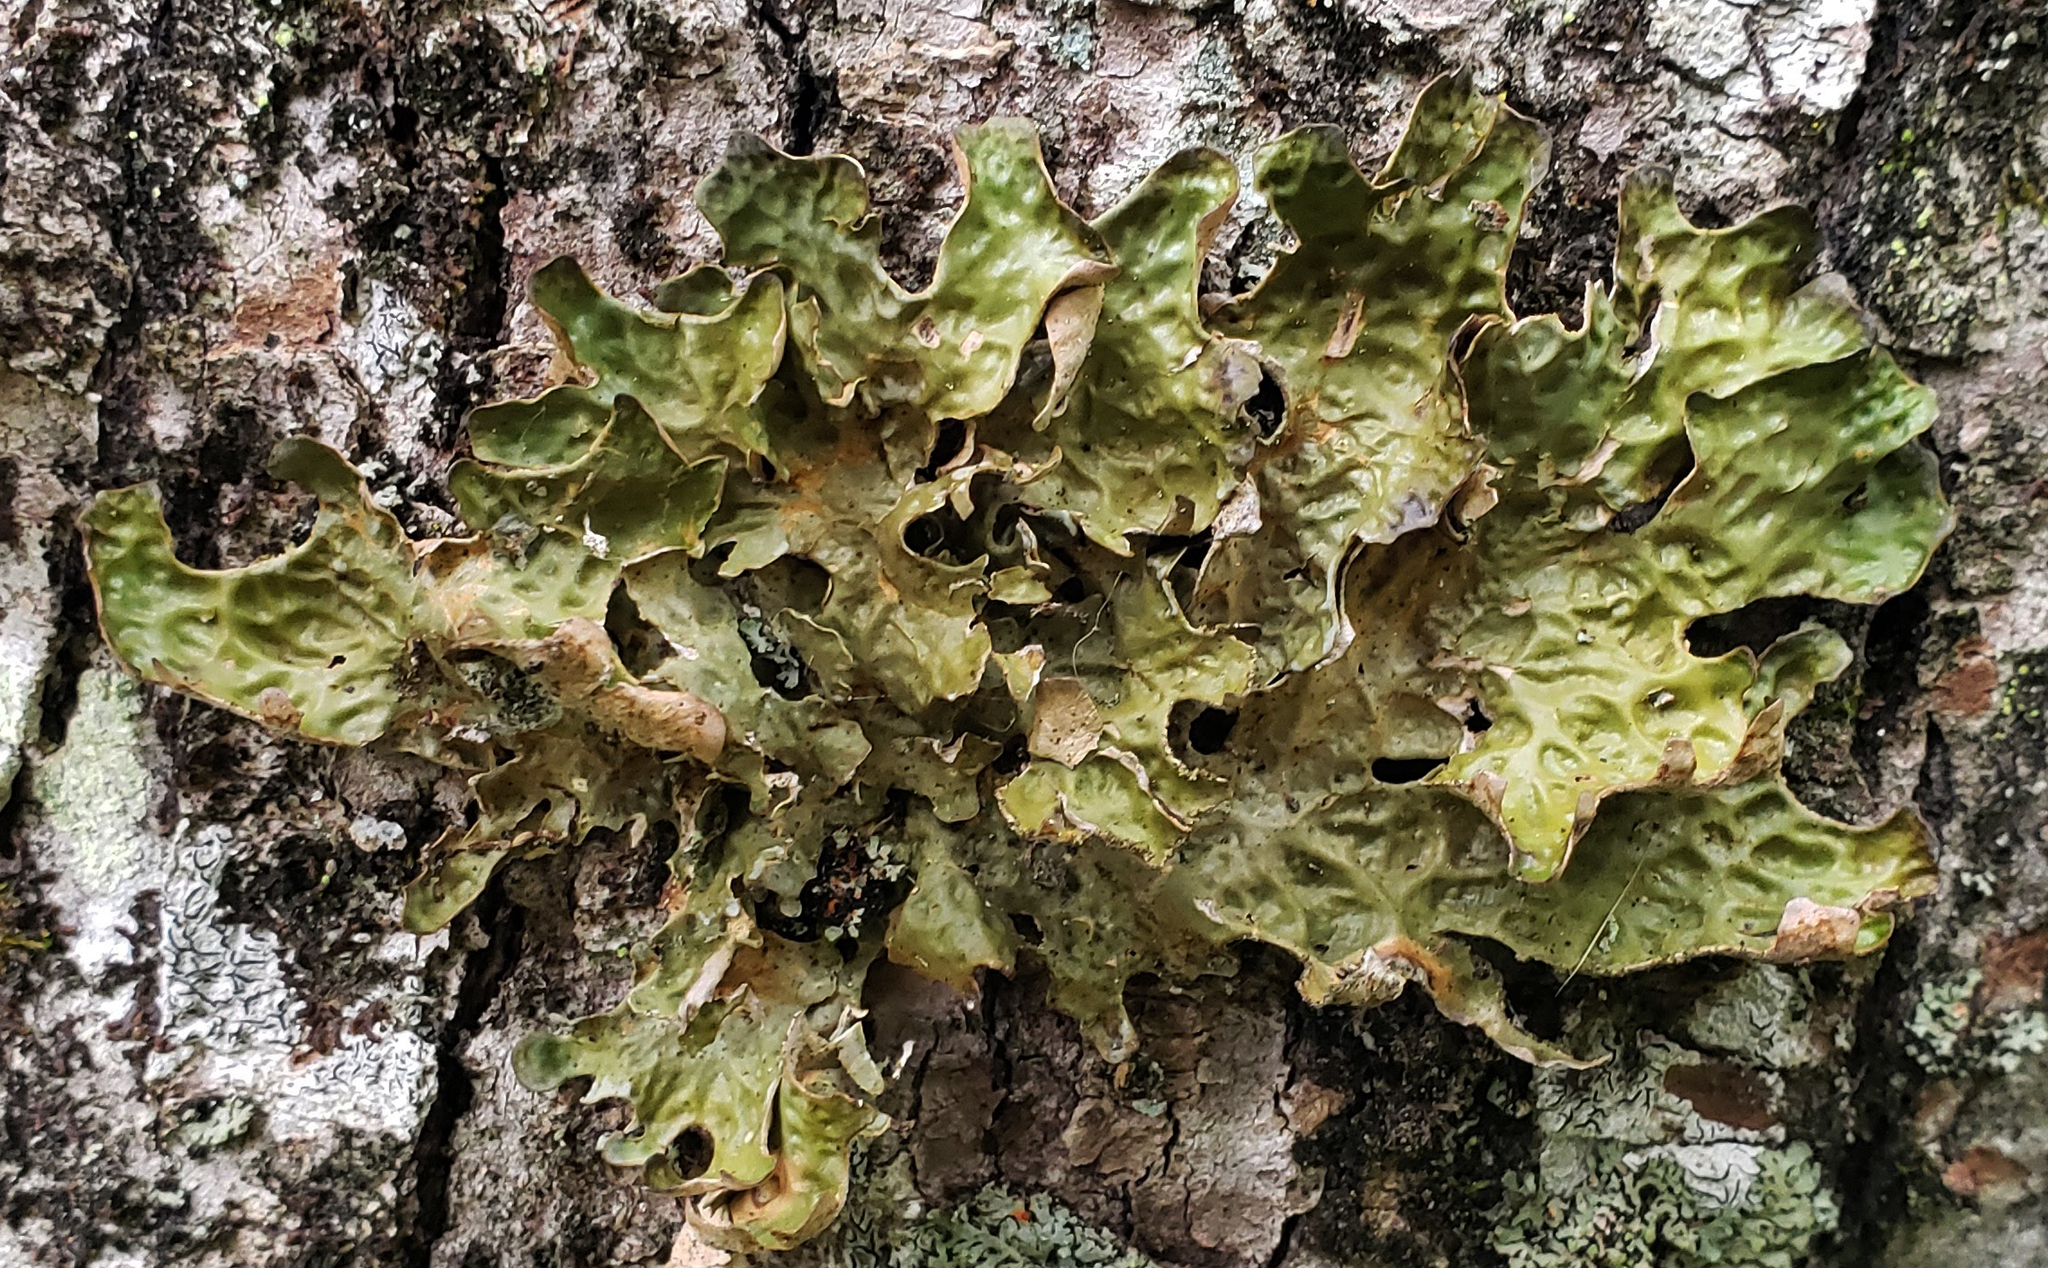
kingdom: Fungi
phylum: Ascomycota
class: Lecanoromycetes
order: Peltigerales
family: Lobariaceae
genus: Lobaria
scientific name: Lobaria pulmonaria
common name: Lungwort
